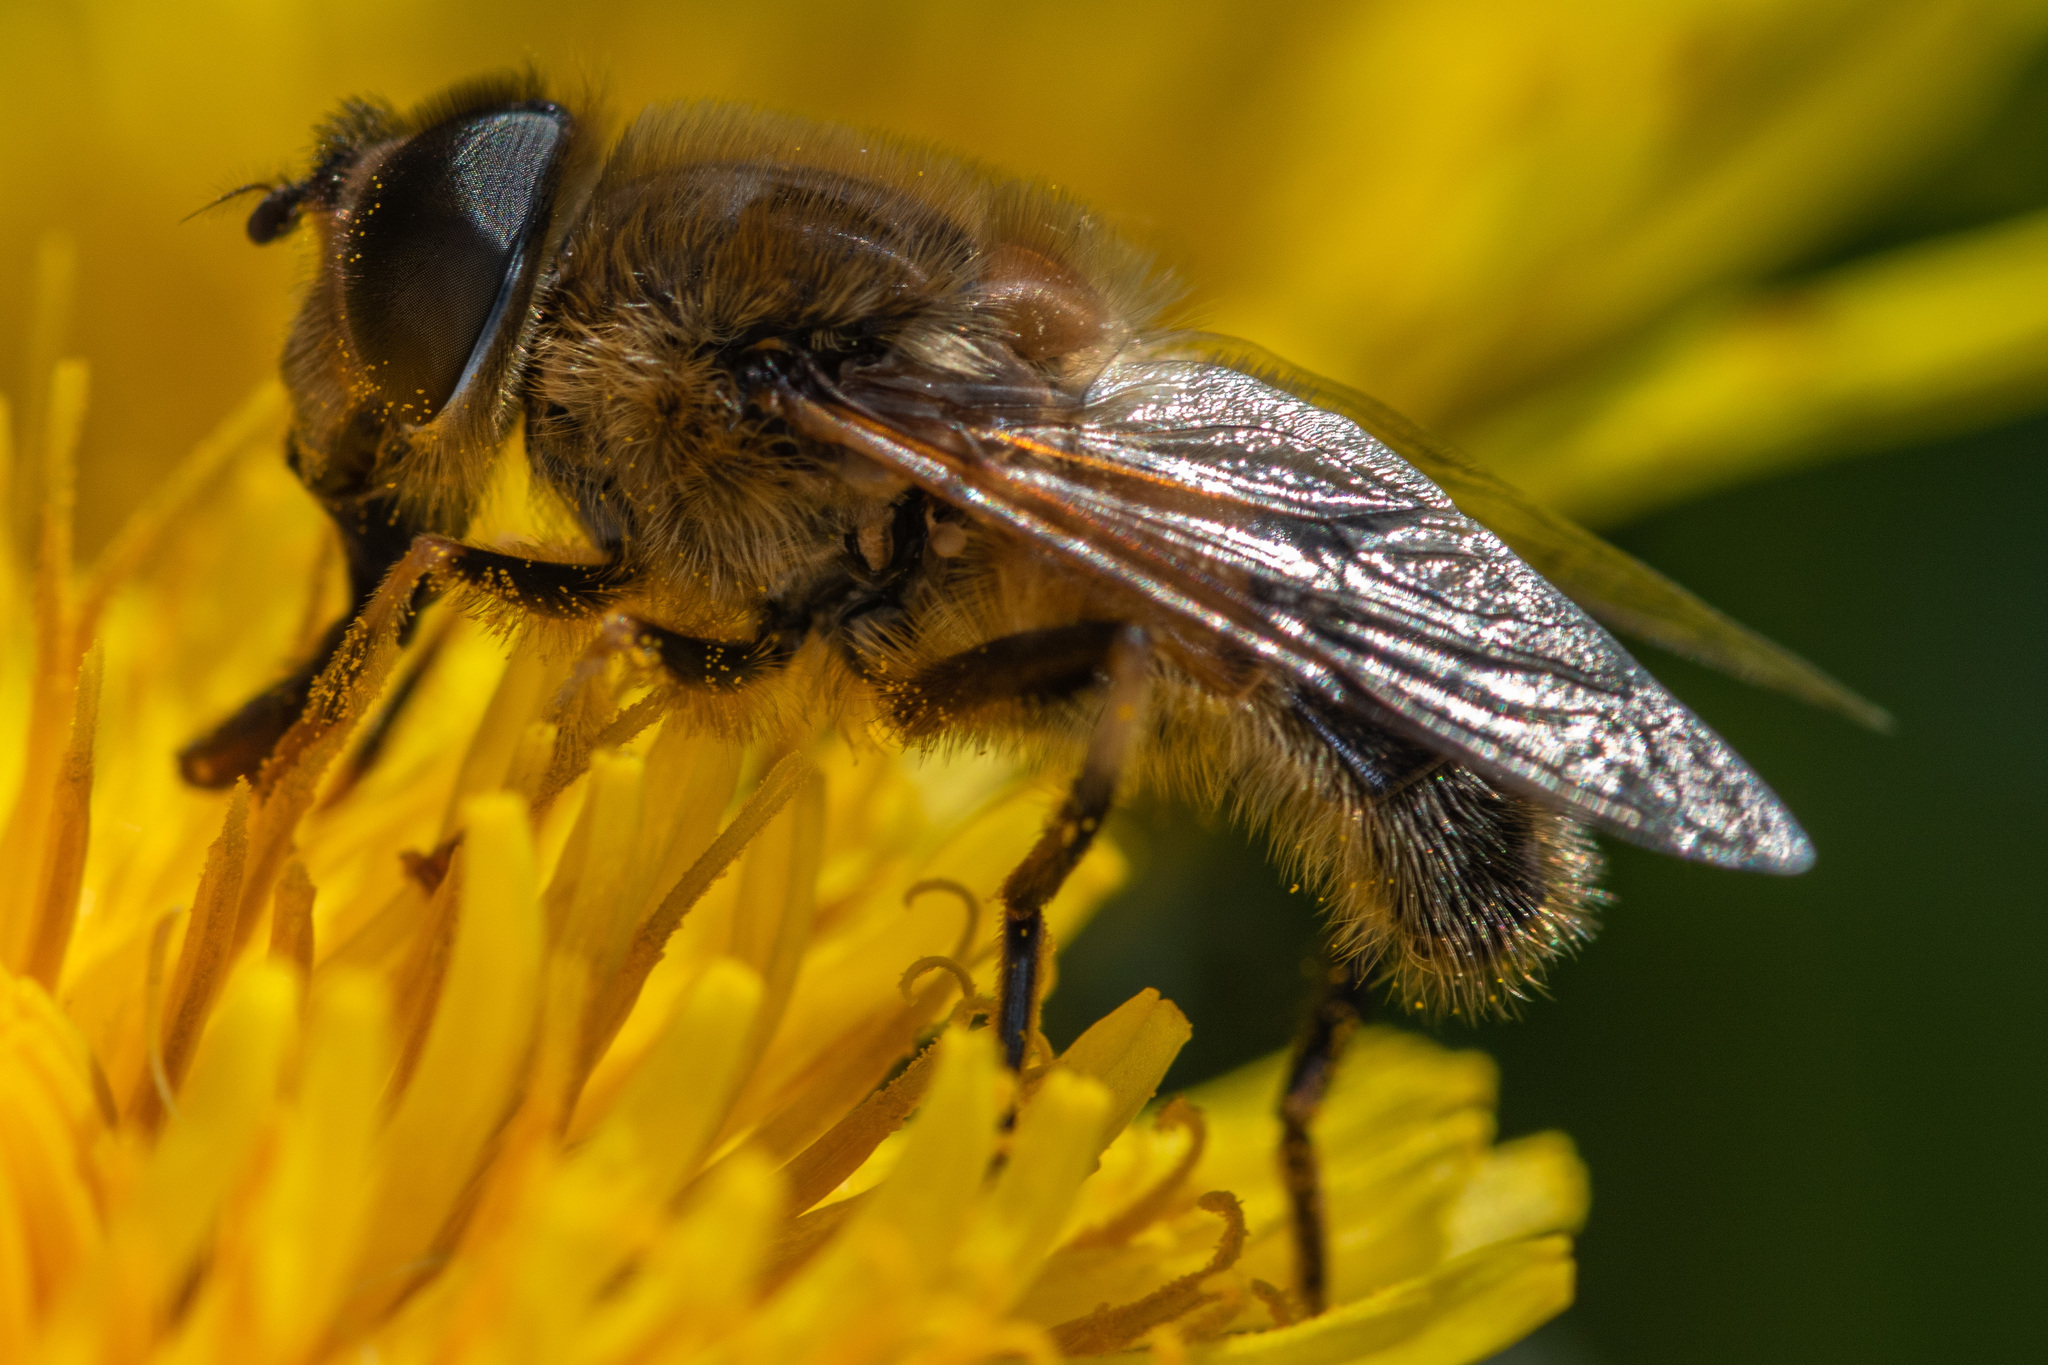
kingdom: Animalia
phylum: Arthropoda
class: Insecta
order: Diptera
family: Syrphidae
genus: Eristalis
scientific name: Eristalis pertinax
